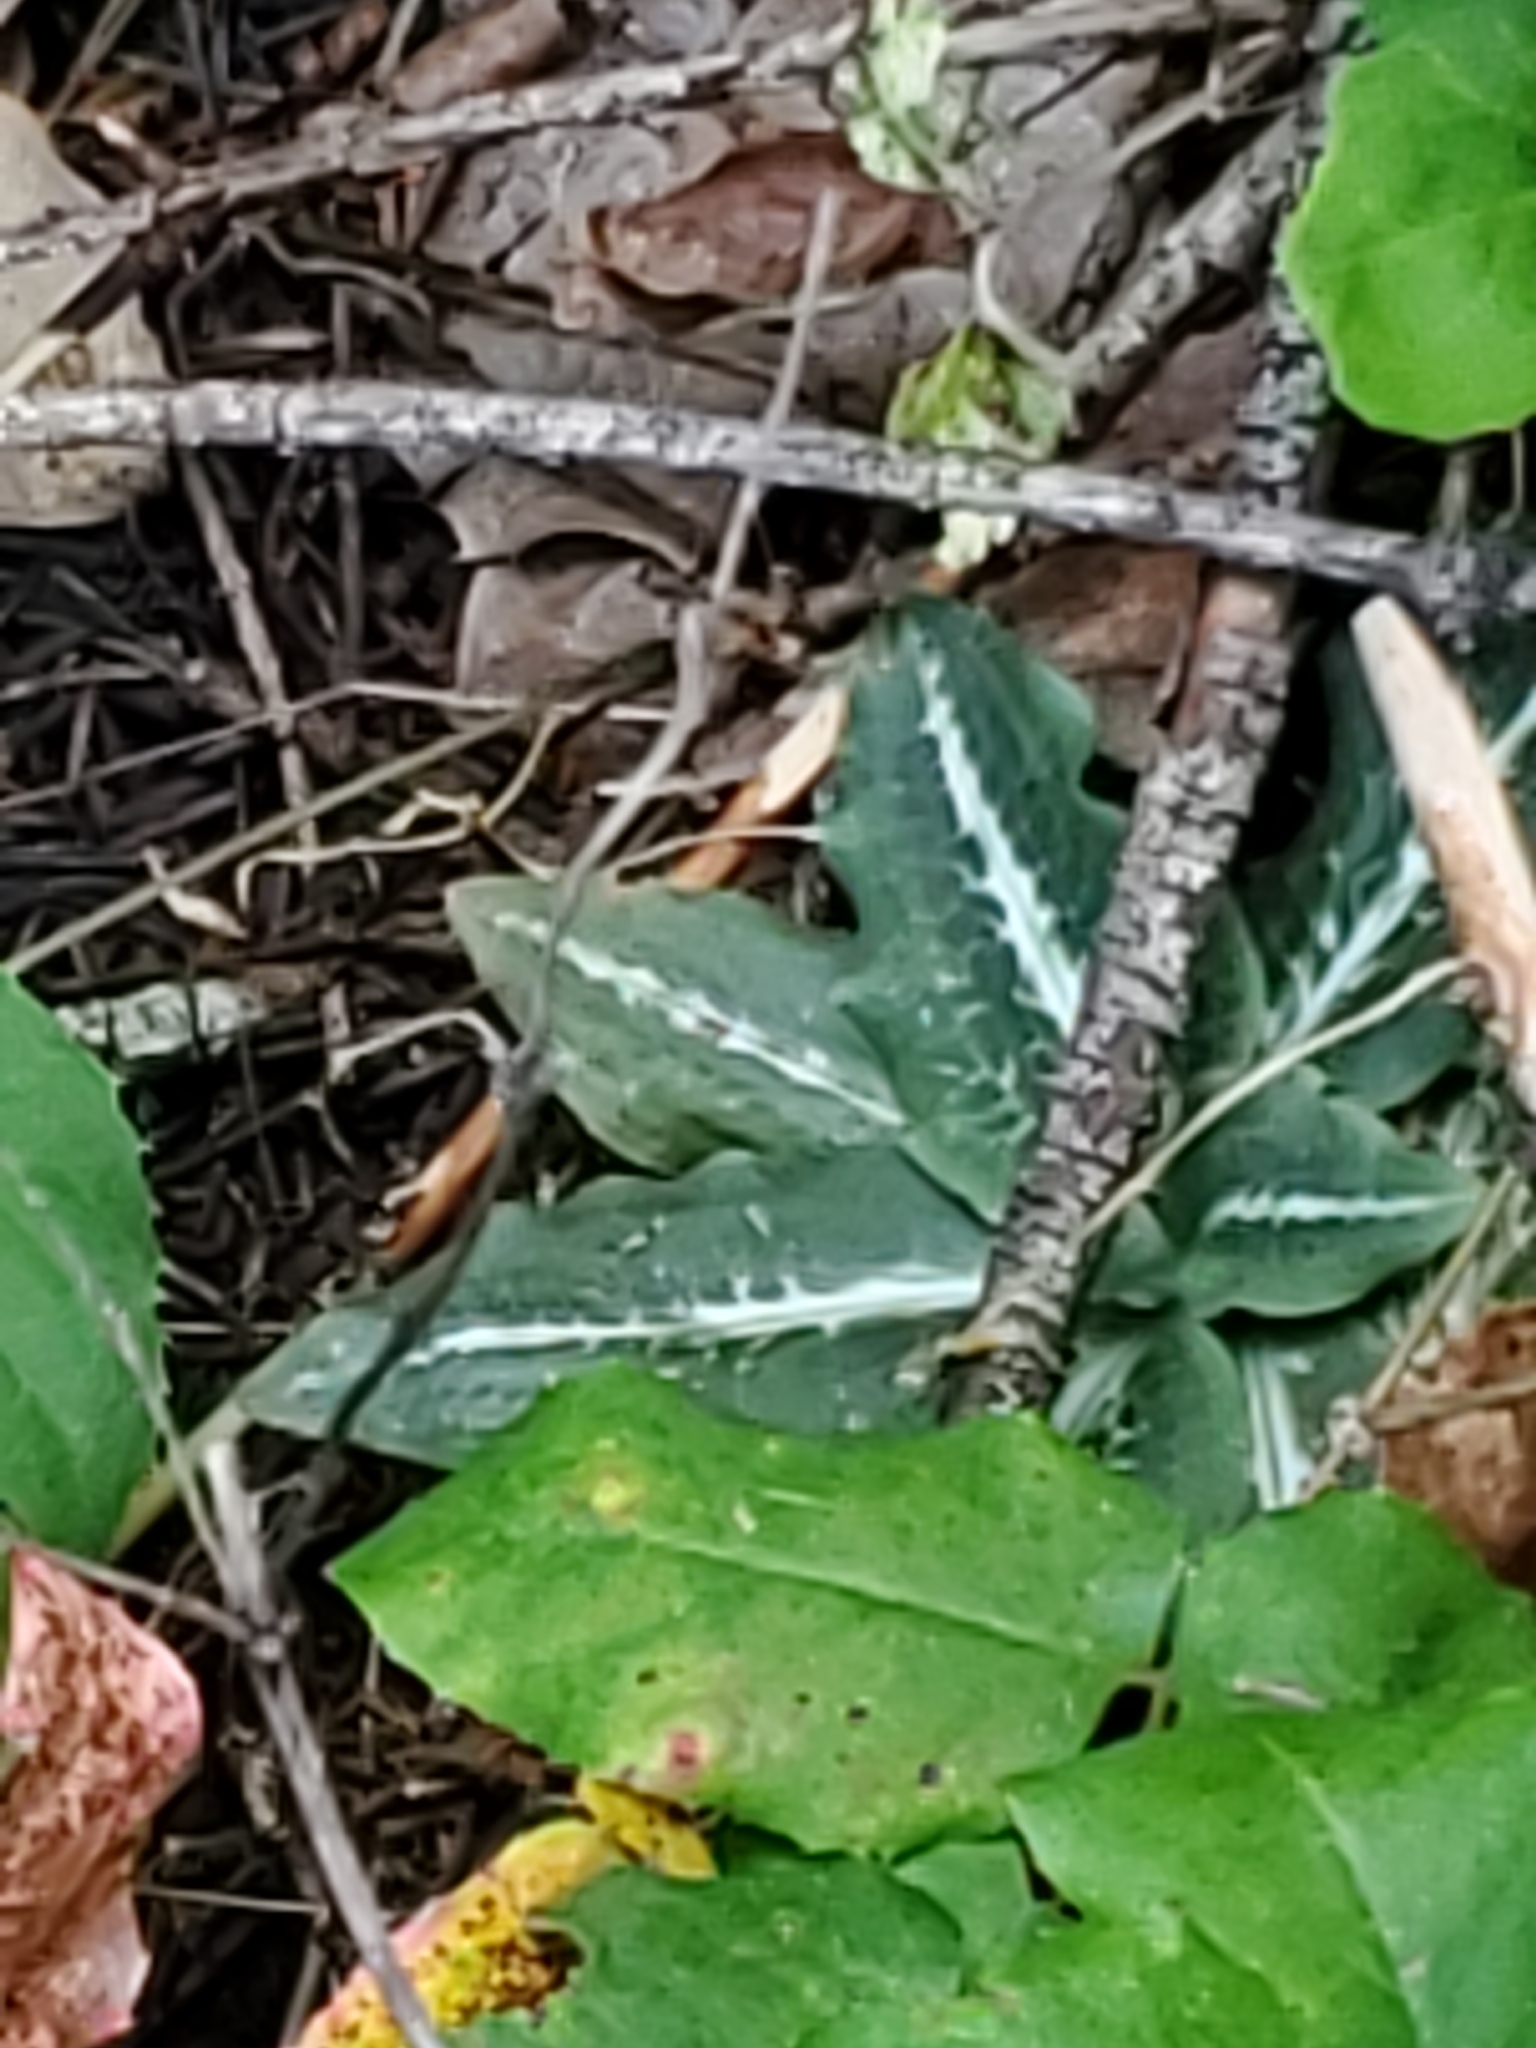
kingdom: Plantae
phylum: Tracheophyta
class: Liliopsida
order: Asparagales
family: Orchidaceae
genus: Goodyera
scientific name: Goodyera oblongifolia
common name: Giant rattlesnake-plantain
